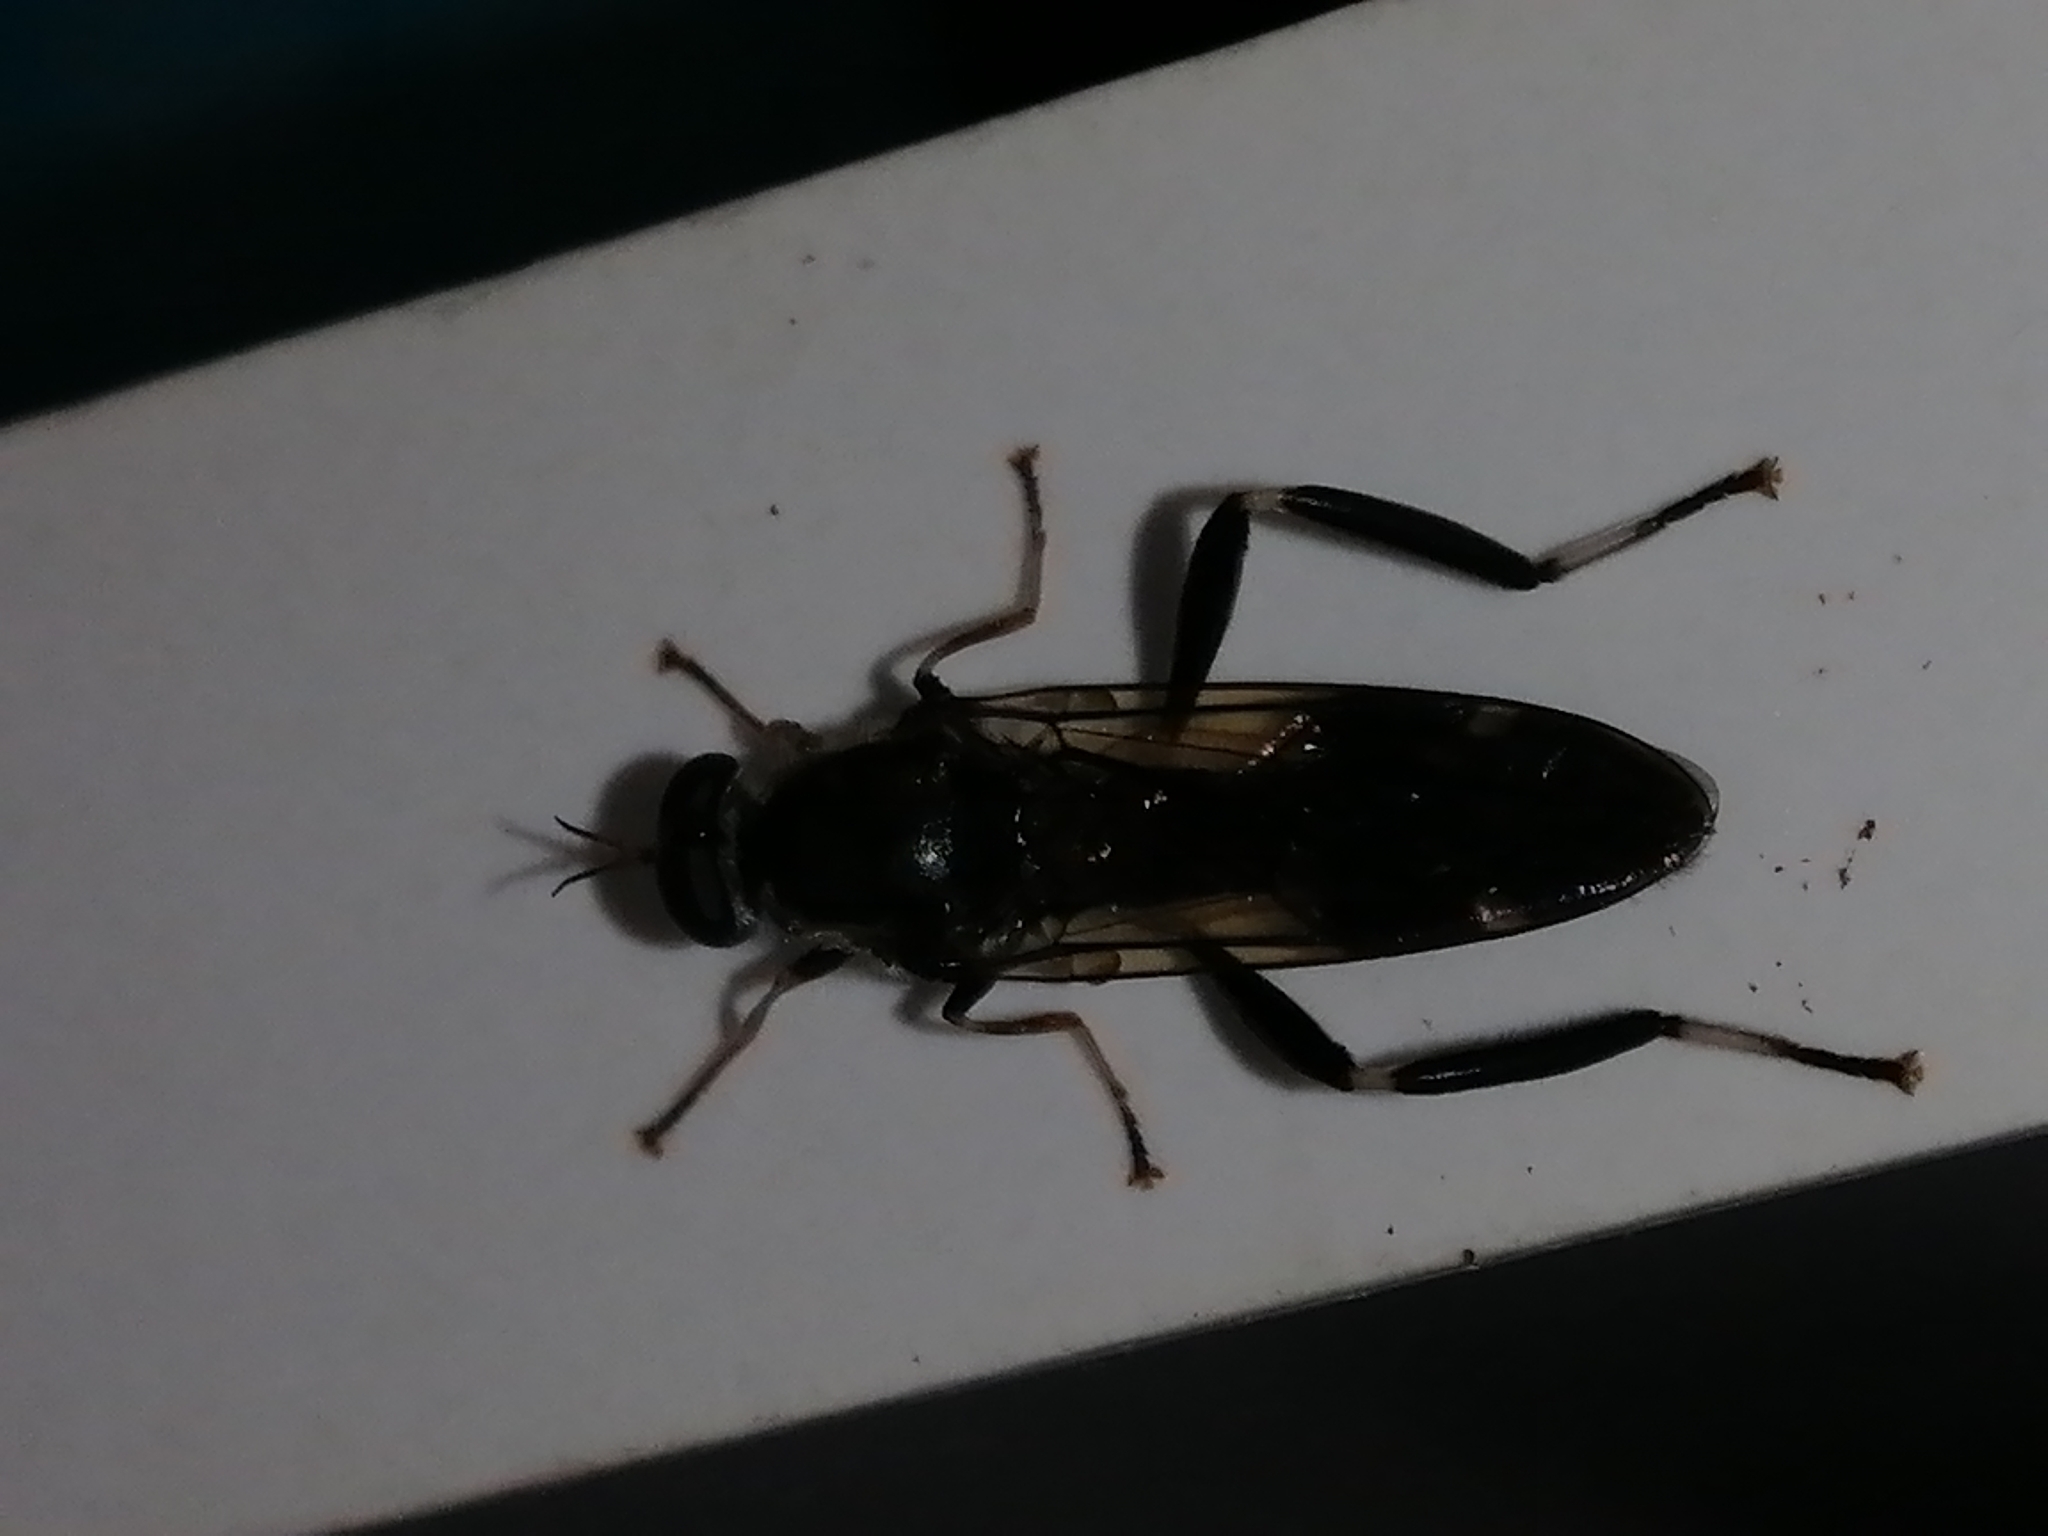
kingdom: Animalia
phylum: Arthropoda
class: Insecta
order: Diptera
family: Stratiomyidae
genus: Exaireta
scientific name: Exaireta spinigera
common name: Blue soldier fly
